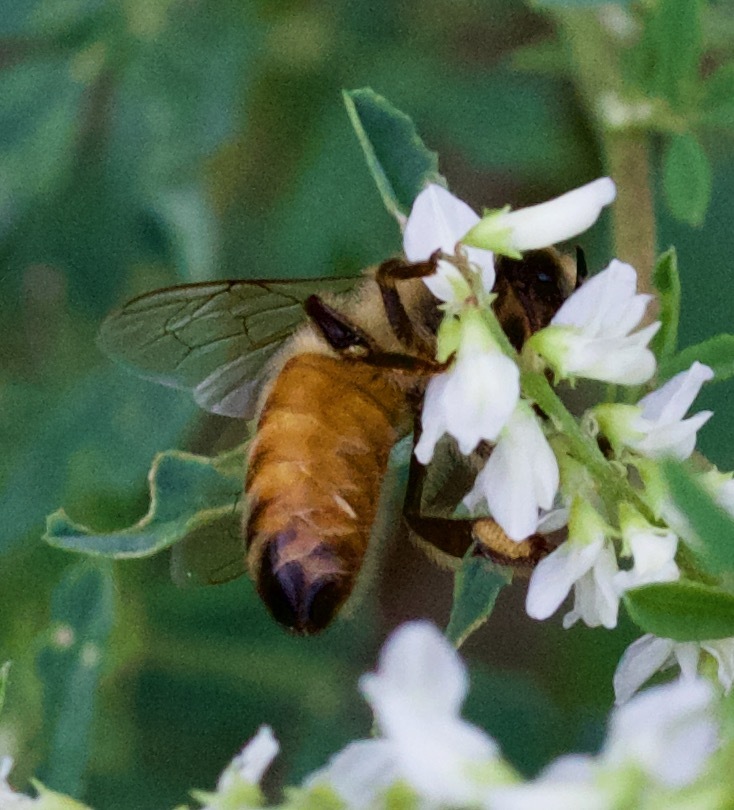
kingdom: Animalia
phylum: Arthropoda
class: Insecta
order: Hymenoptera
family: Apidae
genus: Apis
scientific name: Apis mellifera
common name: Honey bee
